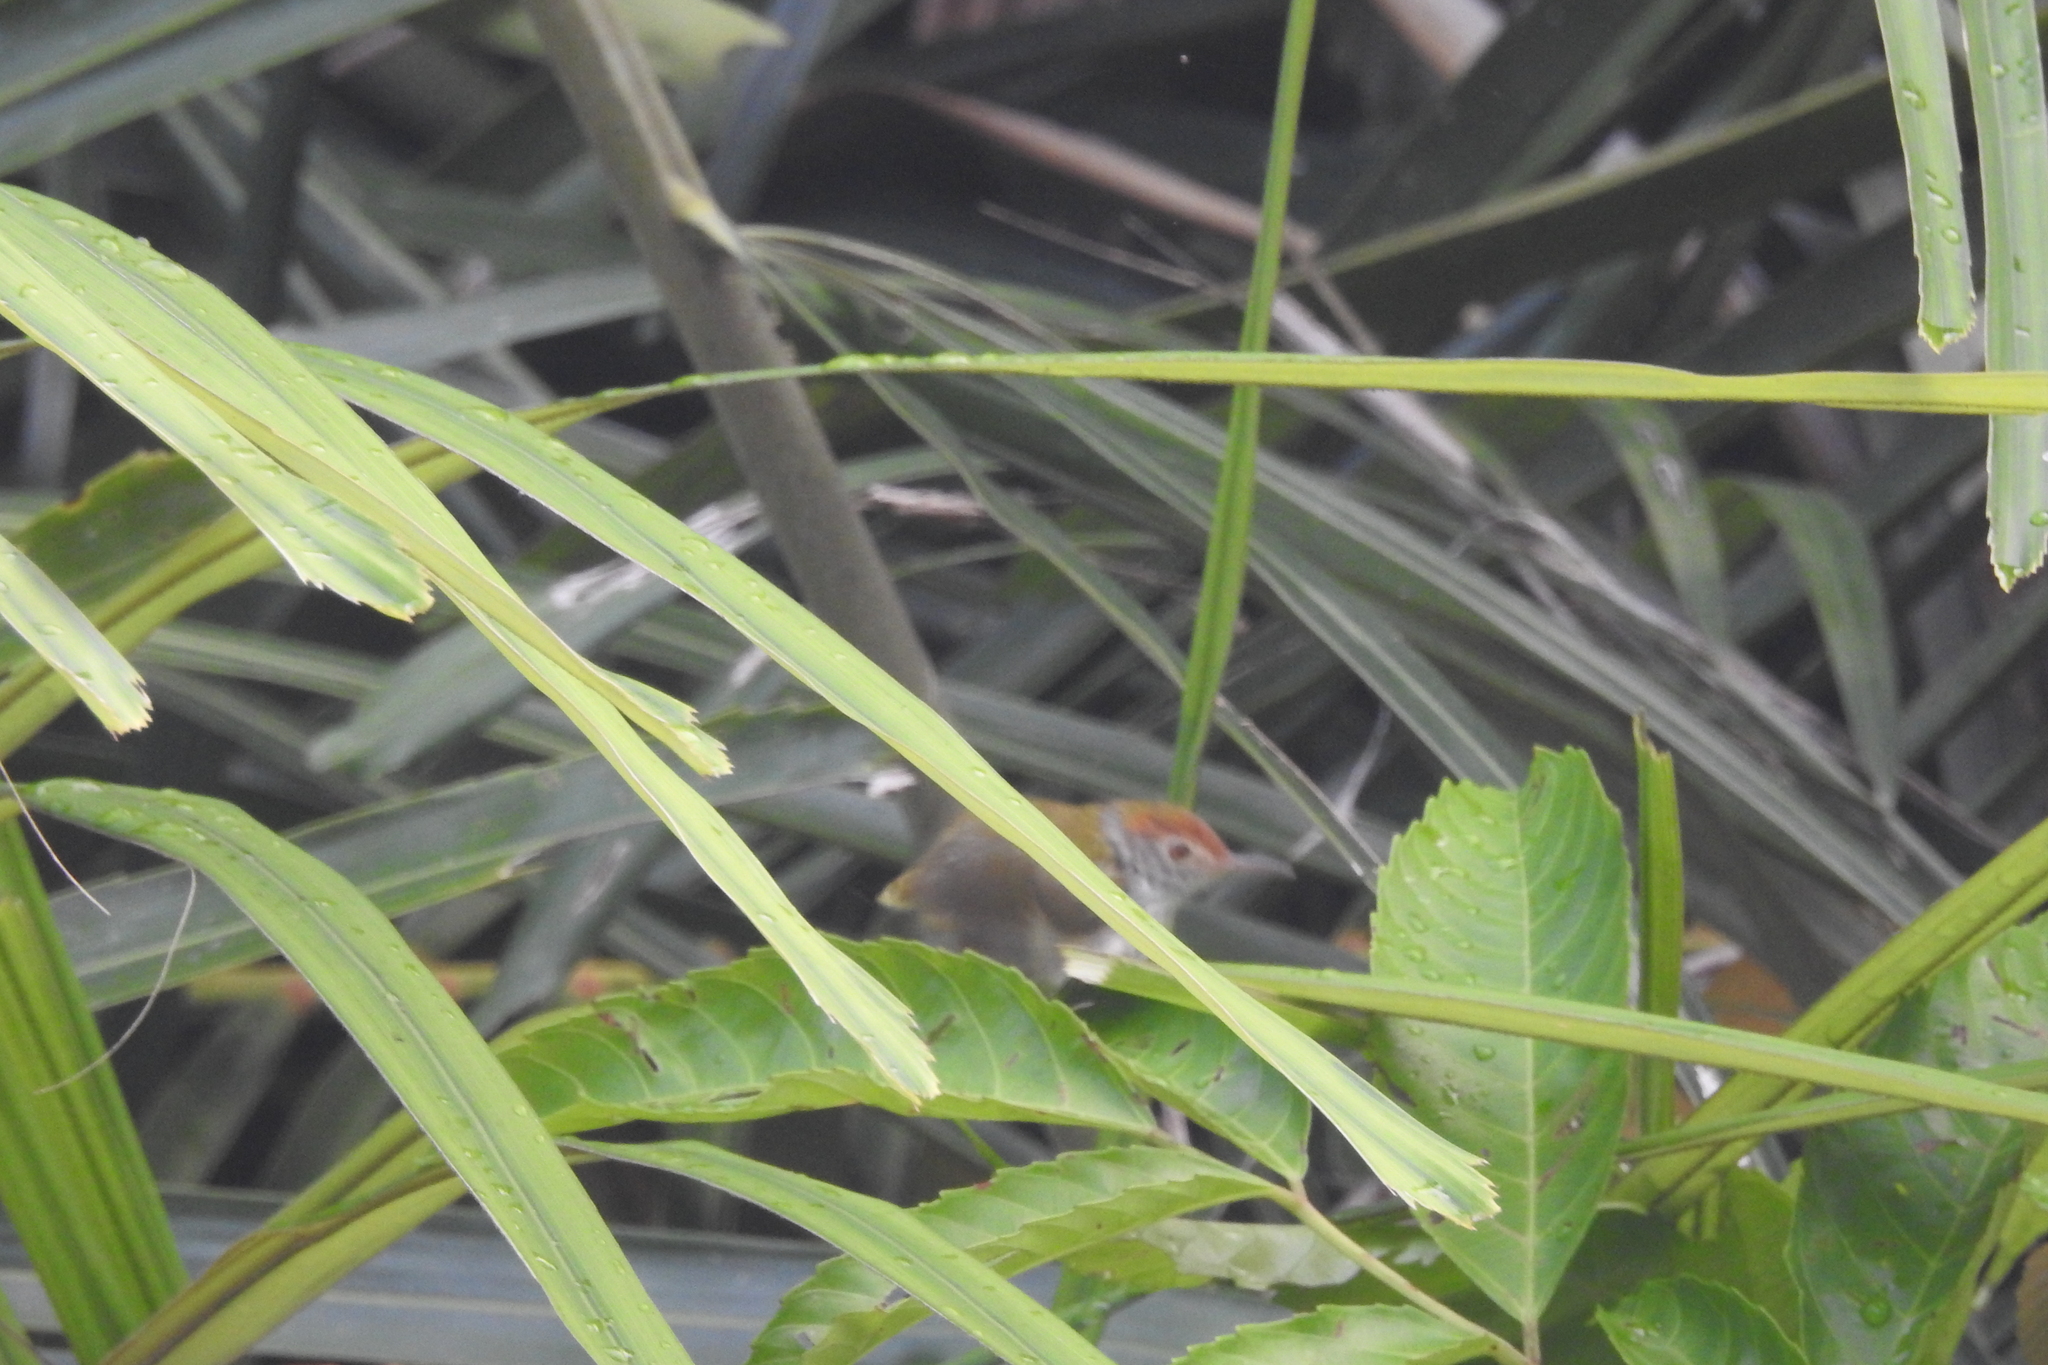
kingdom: Animalia
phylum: Chordata
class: Aves
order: Passeriformes
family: Cisticolidae
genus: Orthotomus
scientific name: Orthotomus atrogularis
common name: Dark-necked tailorbird
